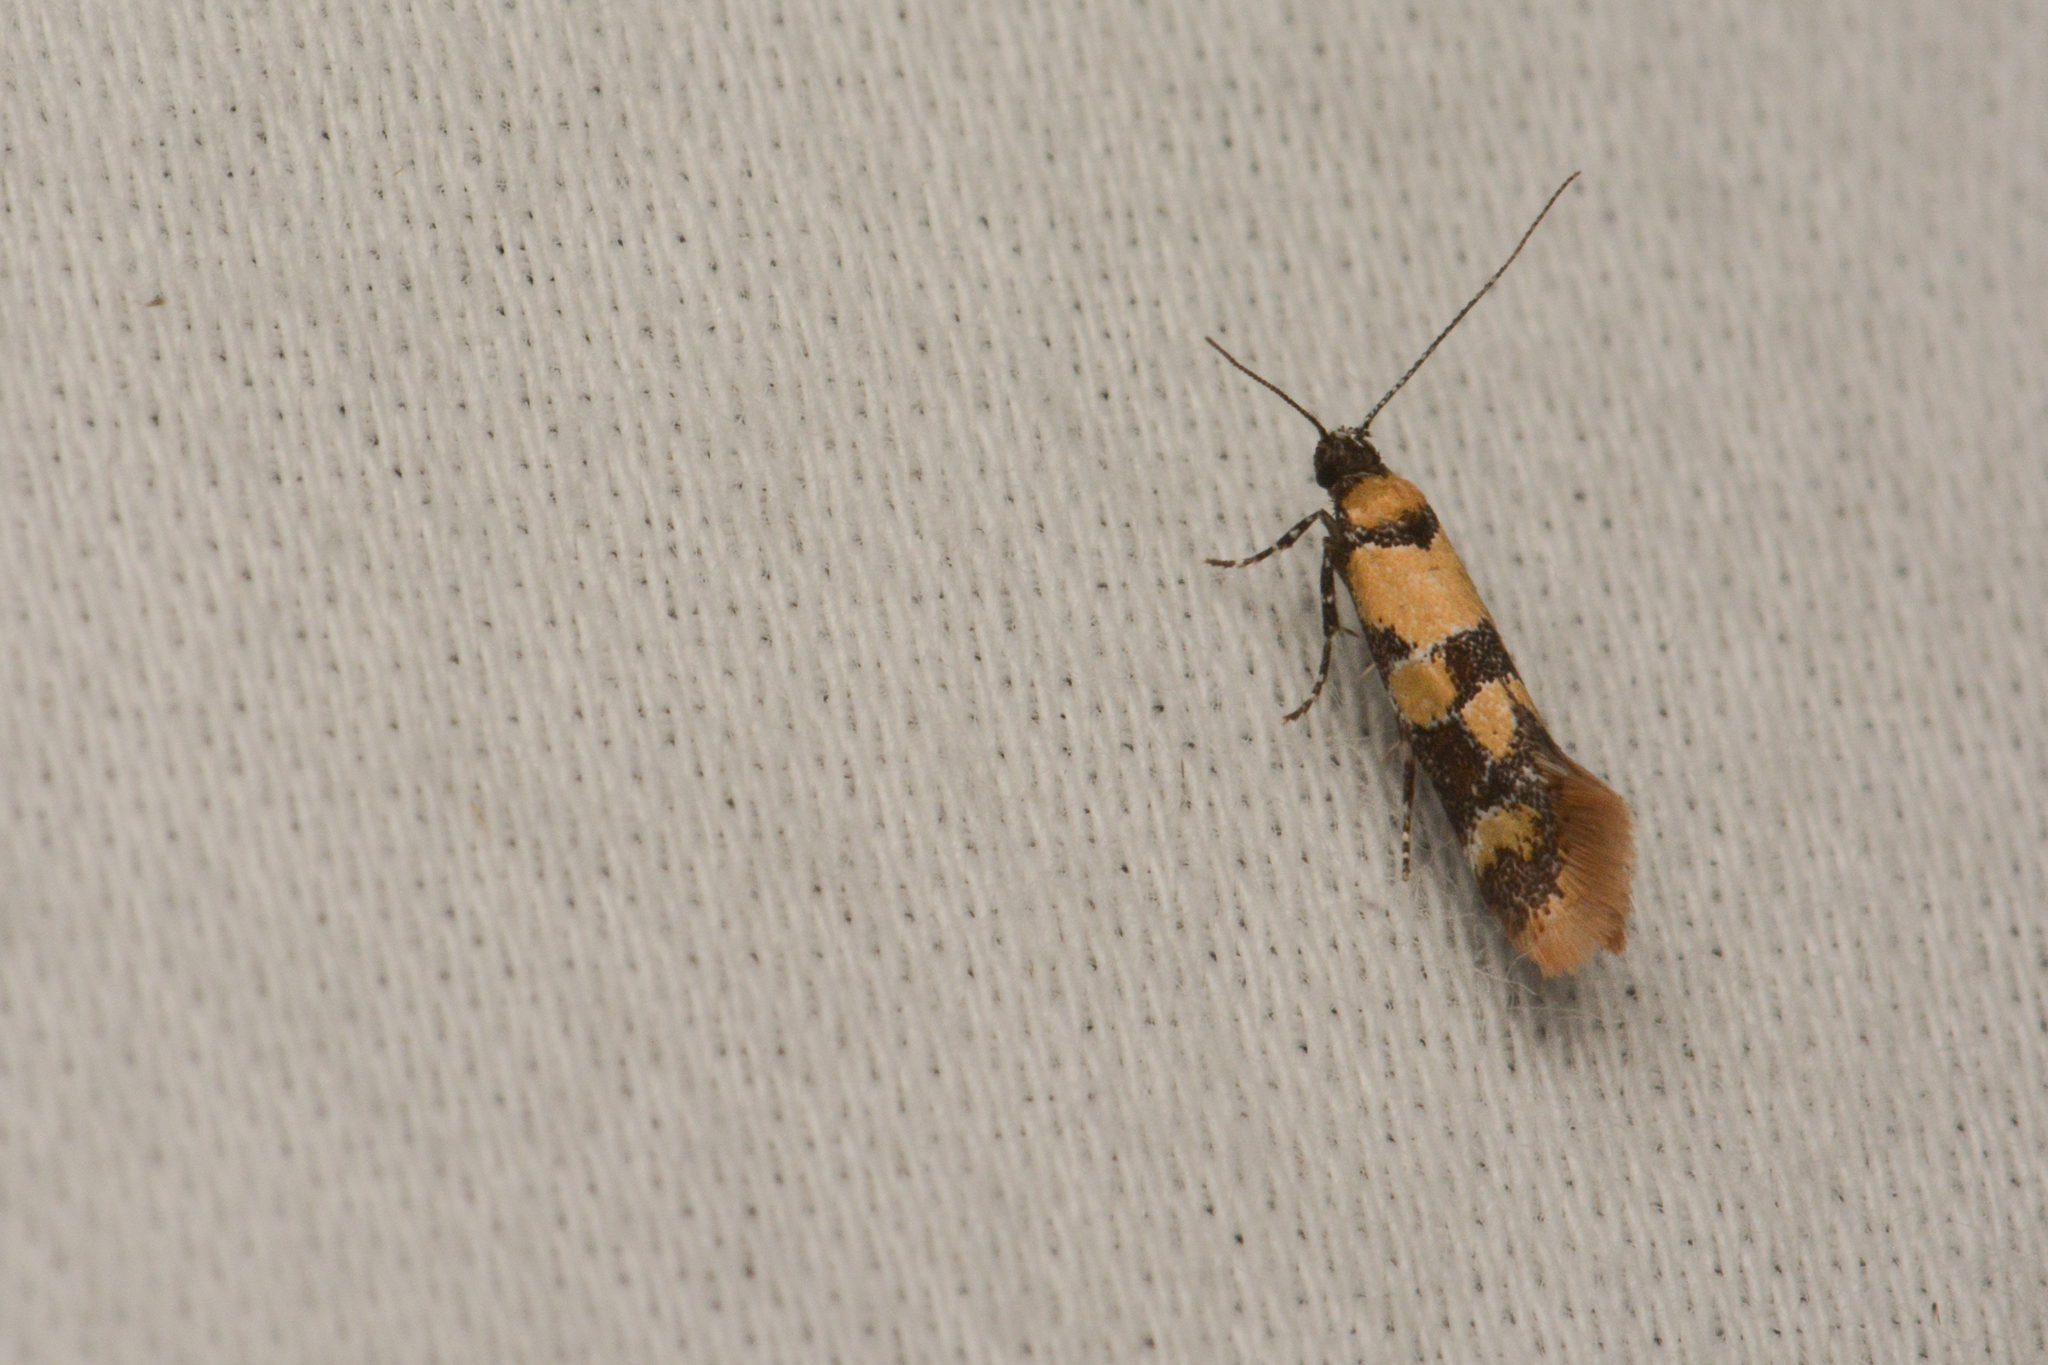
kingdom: Animalia
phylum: Arthropoda
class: Insecta
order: Lepidoptera
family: Oecophoridae
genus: Decantha
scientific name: Decantha tistra
